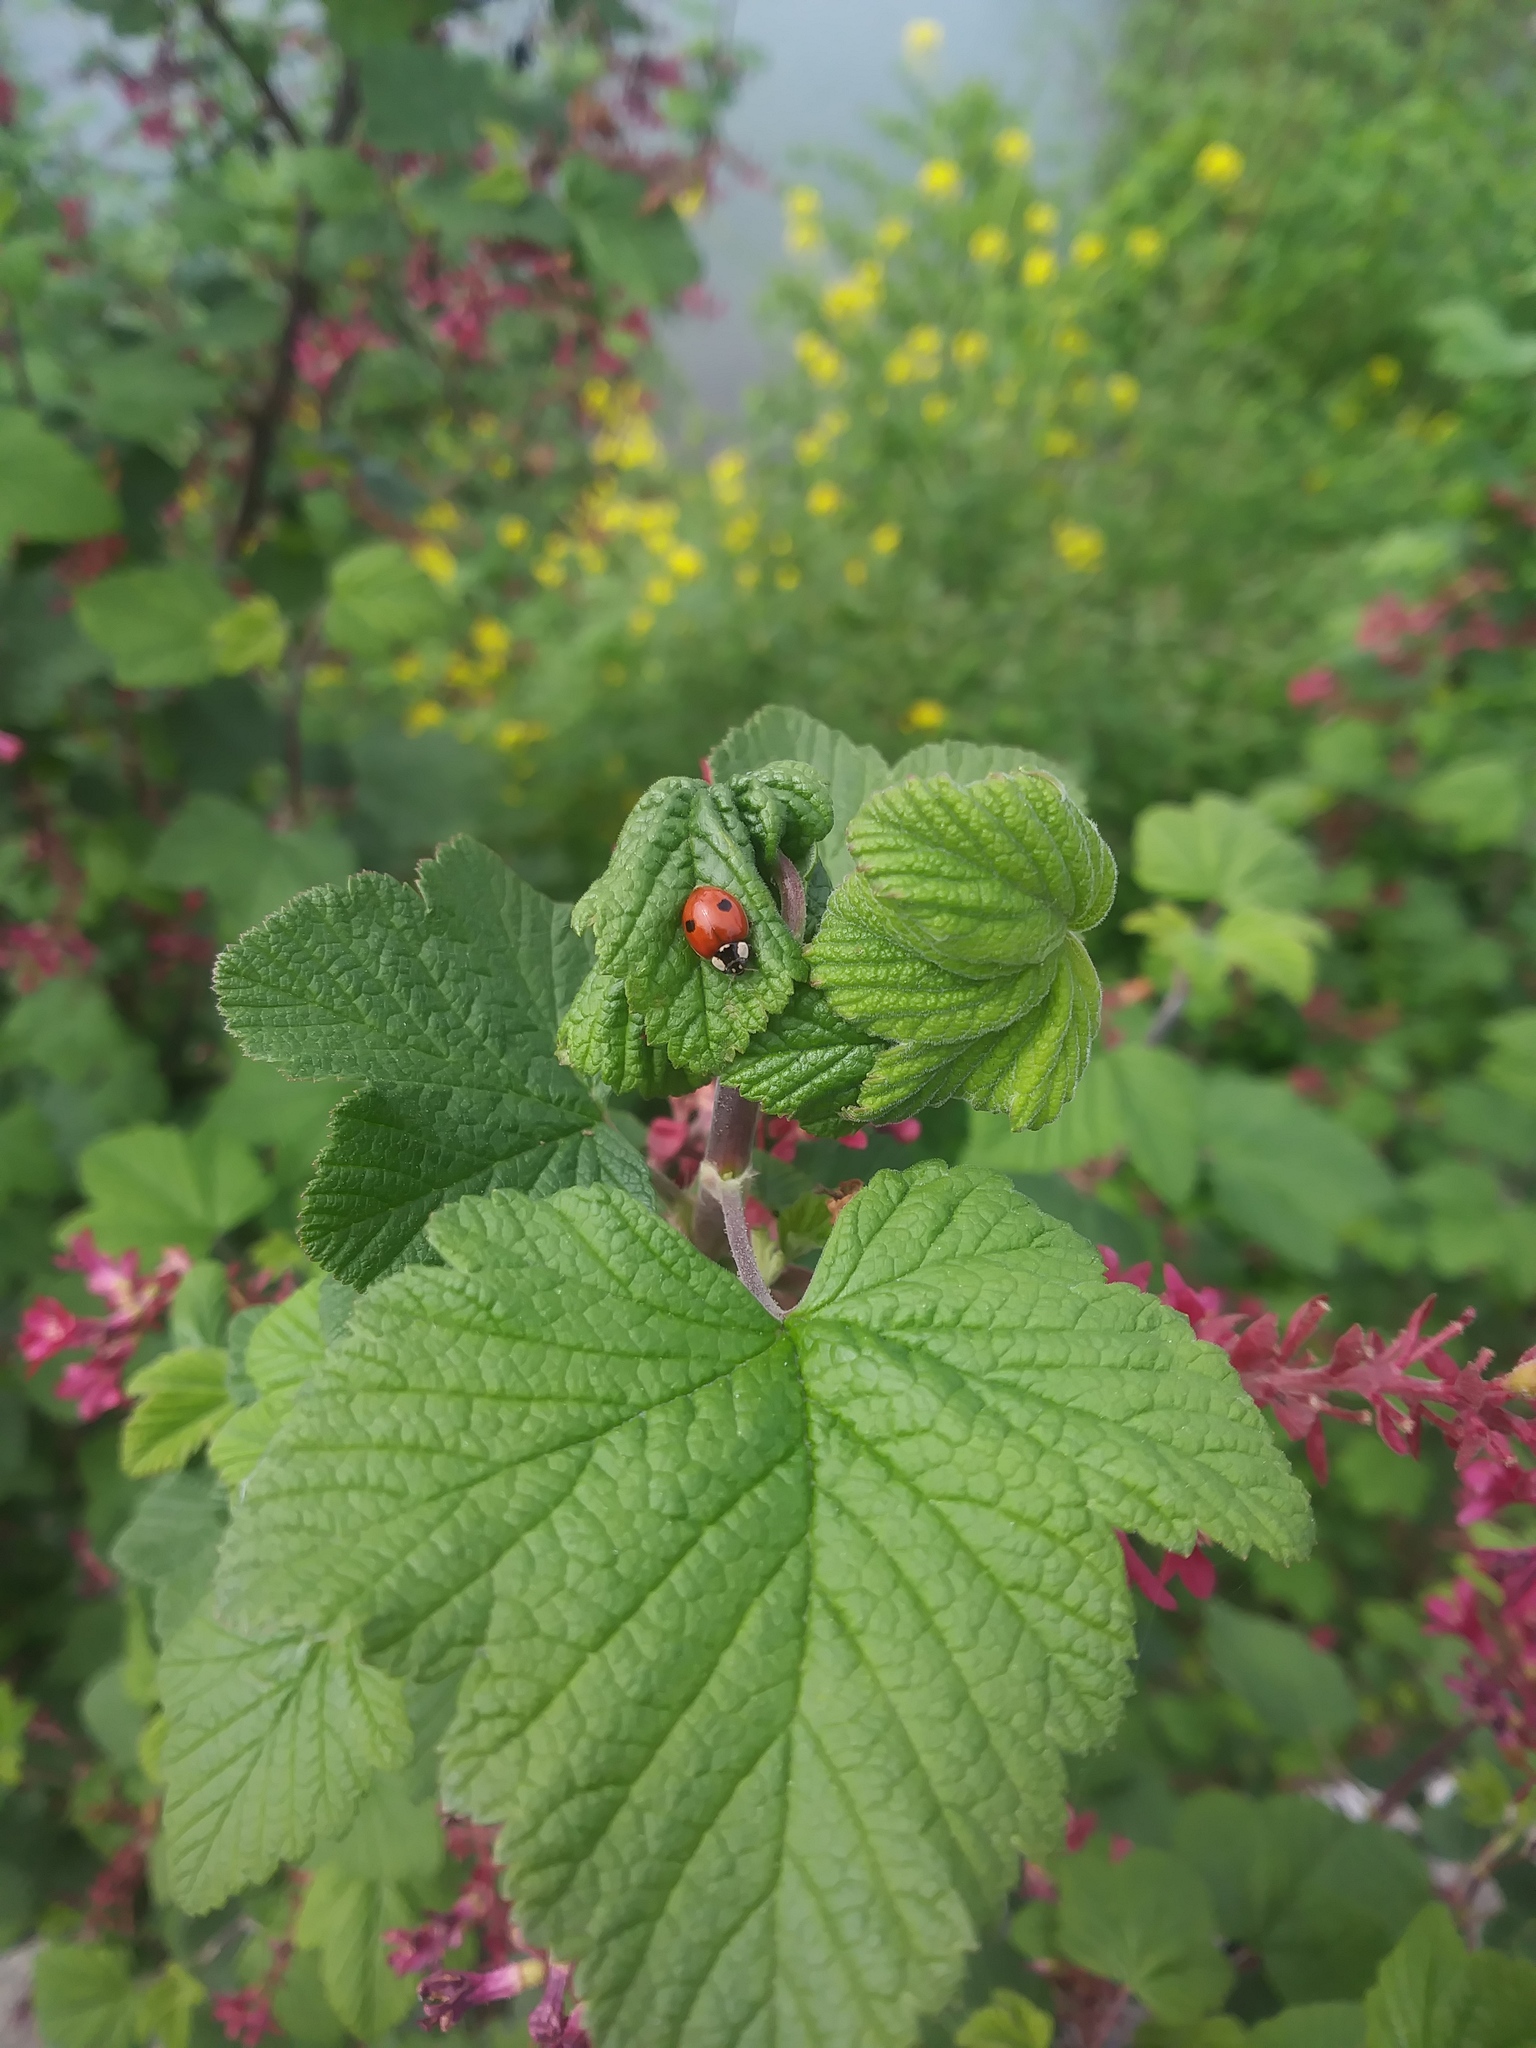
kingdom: Animalia
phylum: Arthropoda
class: Insecta
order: Coleoptera
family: Coccinellidae
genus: Adalia
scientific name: Adalia bipunctata
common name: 2-spot ladybird
